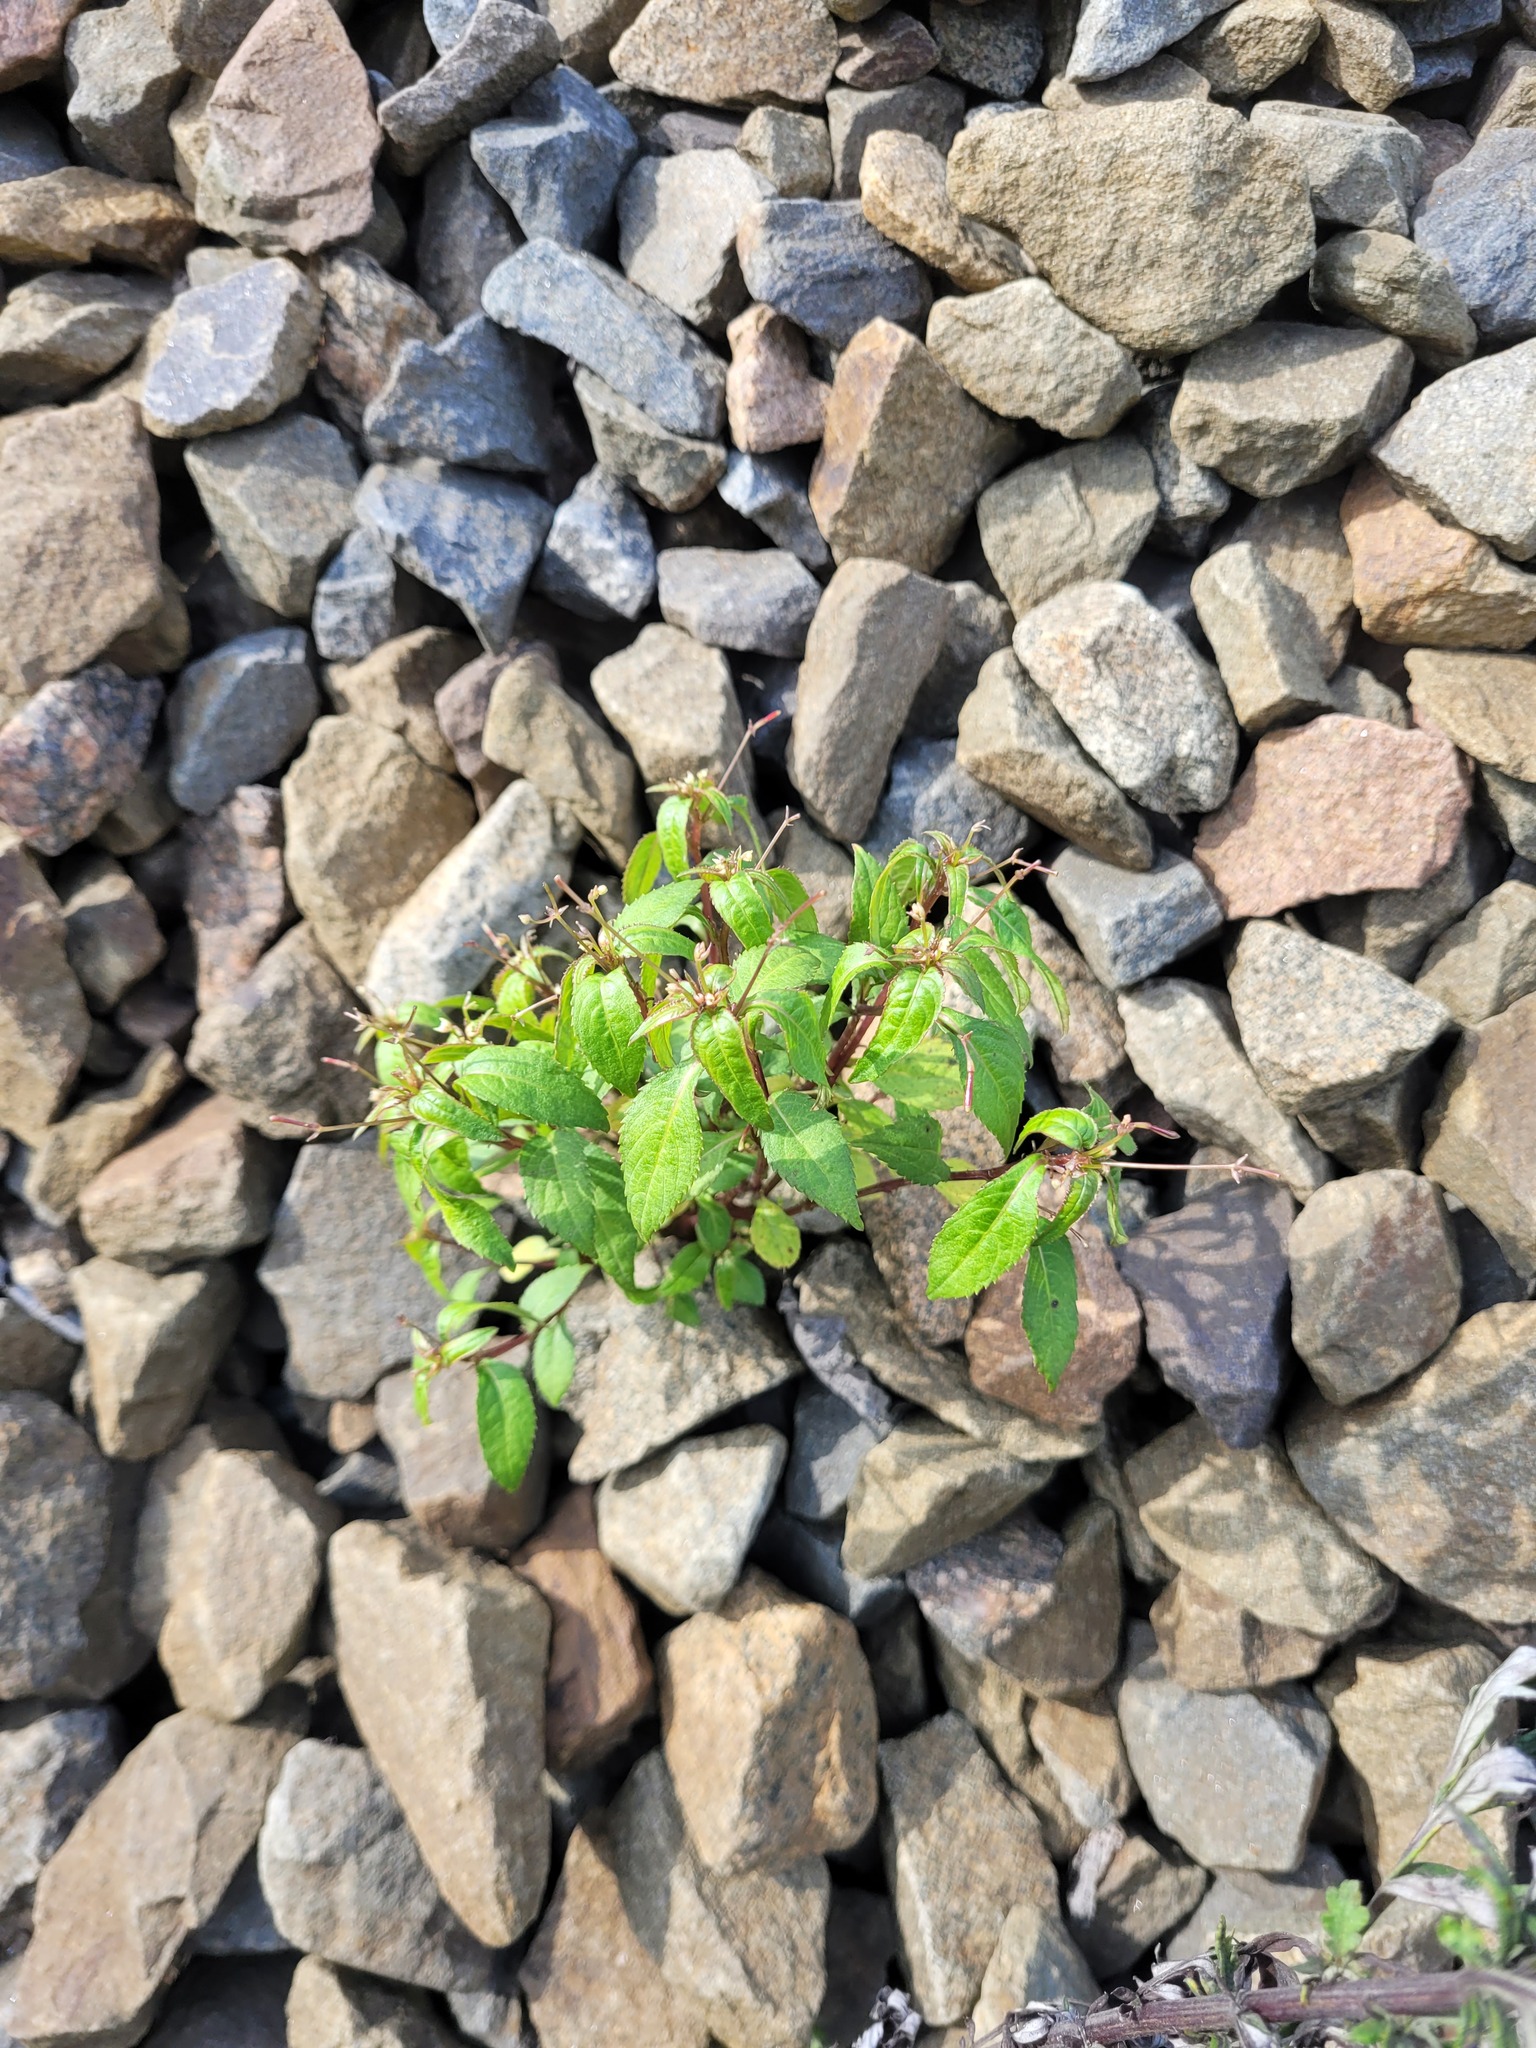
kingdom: Plantae
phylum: Tracheophyta
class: Magnoliopsida
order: Ericales
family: Balsaminaceae
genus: Impatiens
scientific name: Impatiens parviflora
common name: Small balsam
